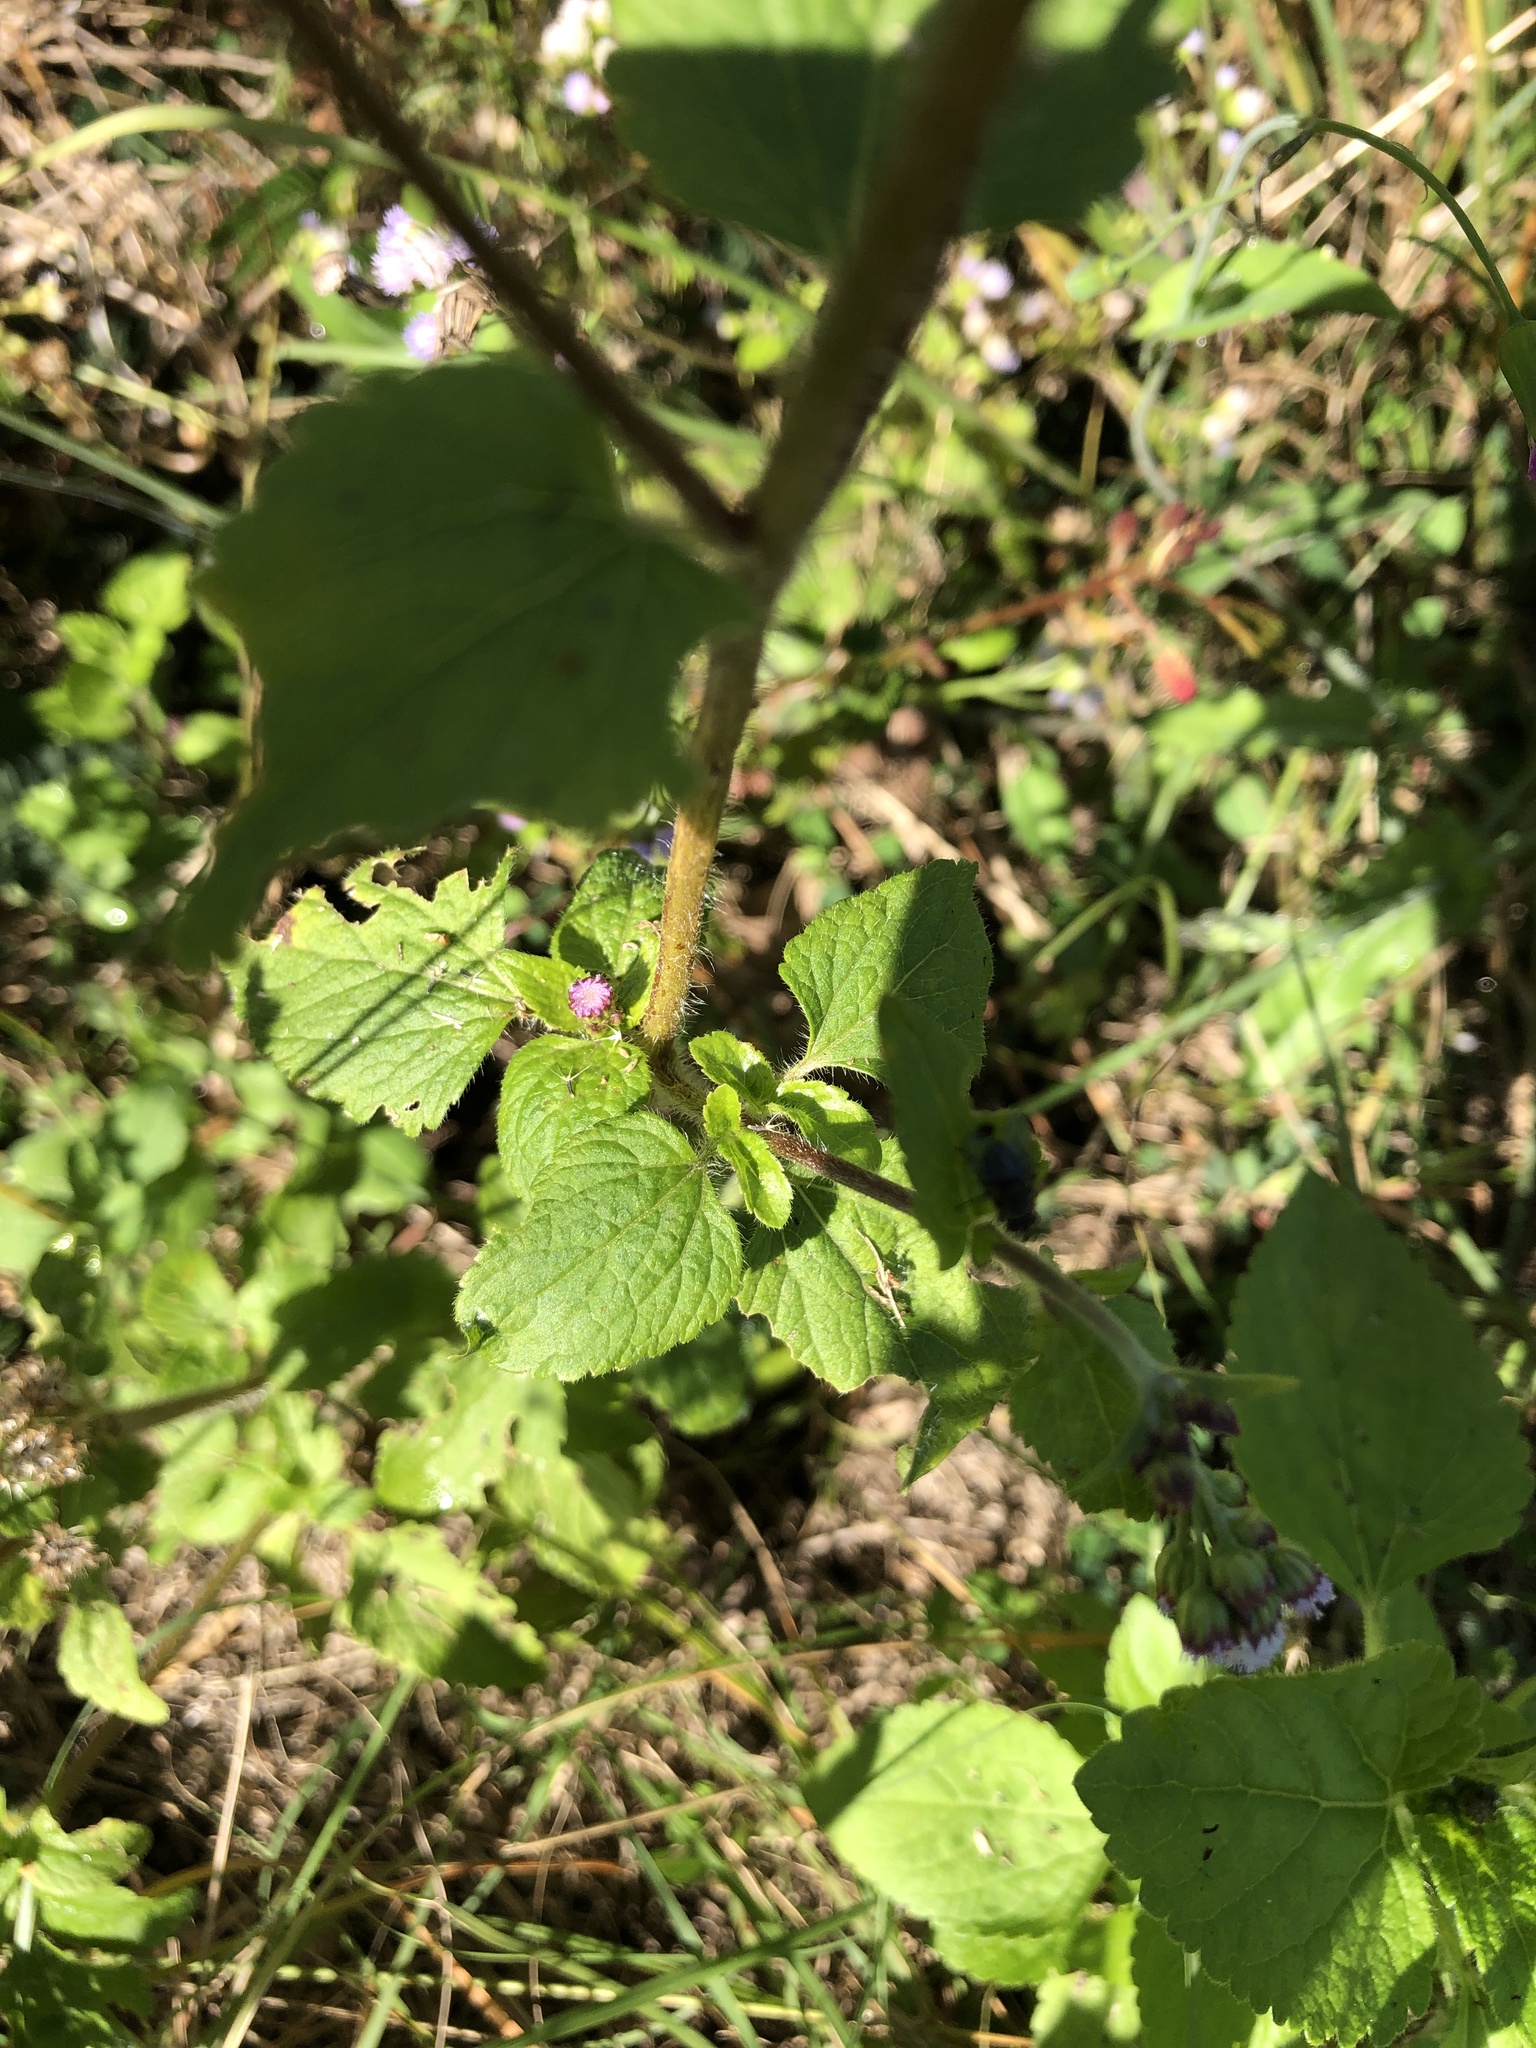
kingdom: Plantae
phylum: Tracheophyta
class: Magnoliopsida
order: Asterales
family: Asteraceae
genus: Ageratum
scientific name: Ageratum conyzoides
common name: Tropical whiteweed
